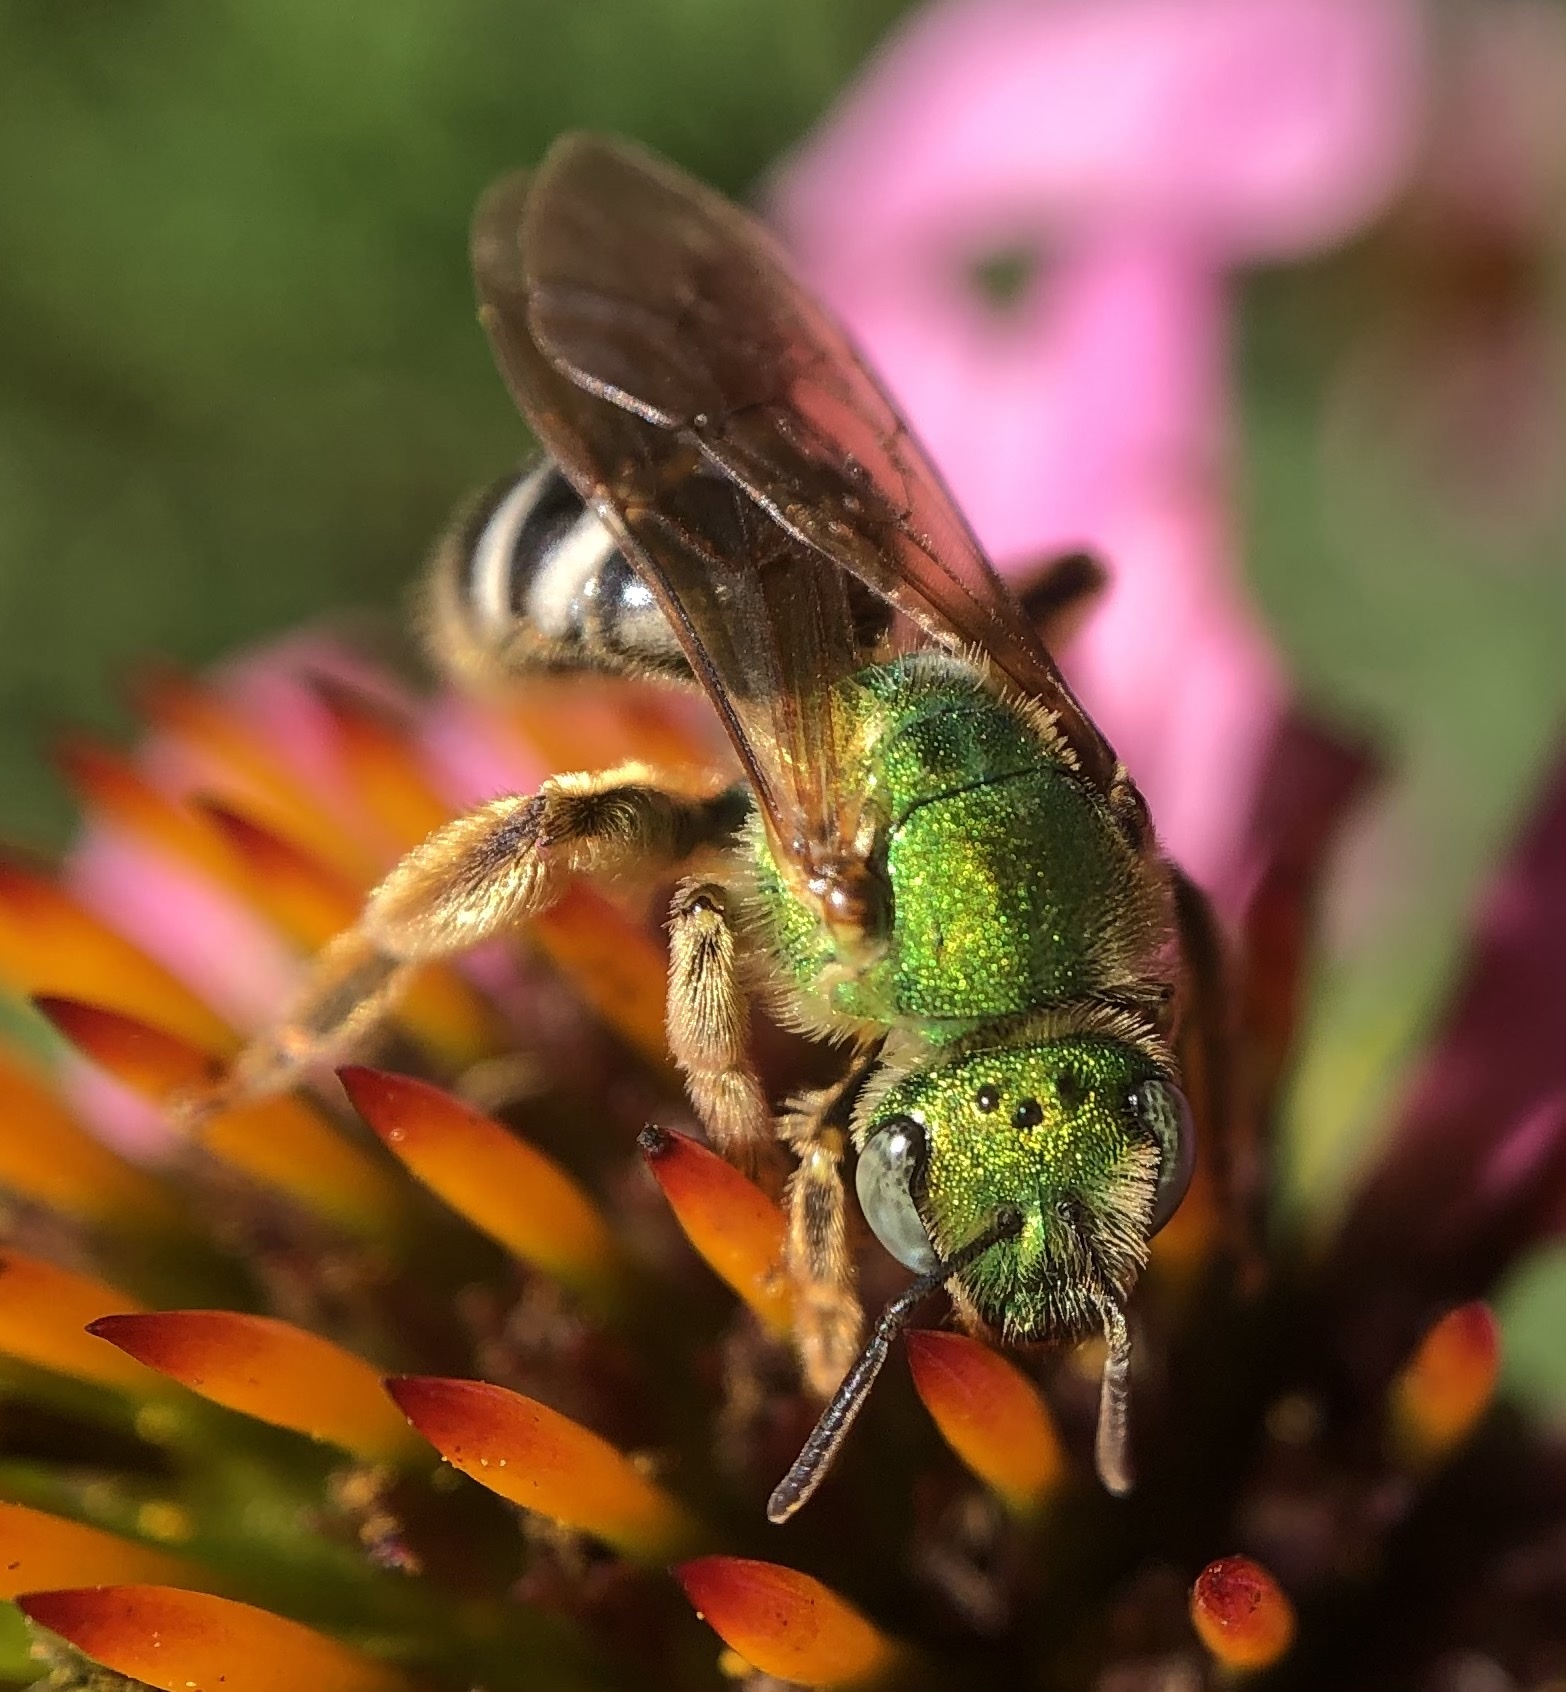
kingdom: Animalia
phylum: Arthropoda
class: Insecta
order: Hymenoptera
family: Halictidae
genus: Agapostemon
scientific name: Agapostemon virescens
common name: Bicolored striped sweat bee
